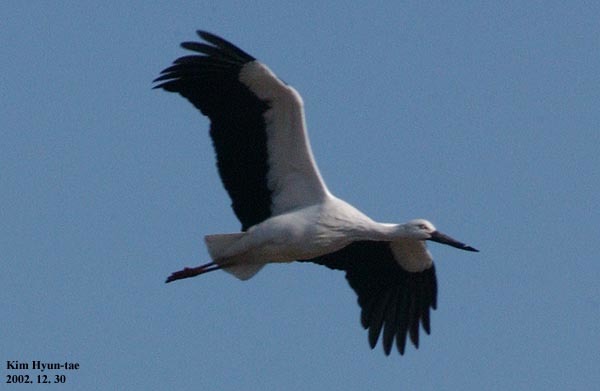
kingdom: Animalia
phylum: Chordata
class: Aves
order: Ciconiiformes
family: Ciconiidae
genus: Ciconia
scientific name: Ciconia boyciana
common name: Oriental stork
